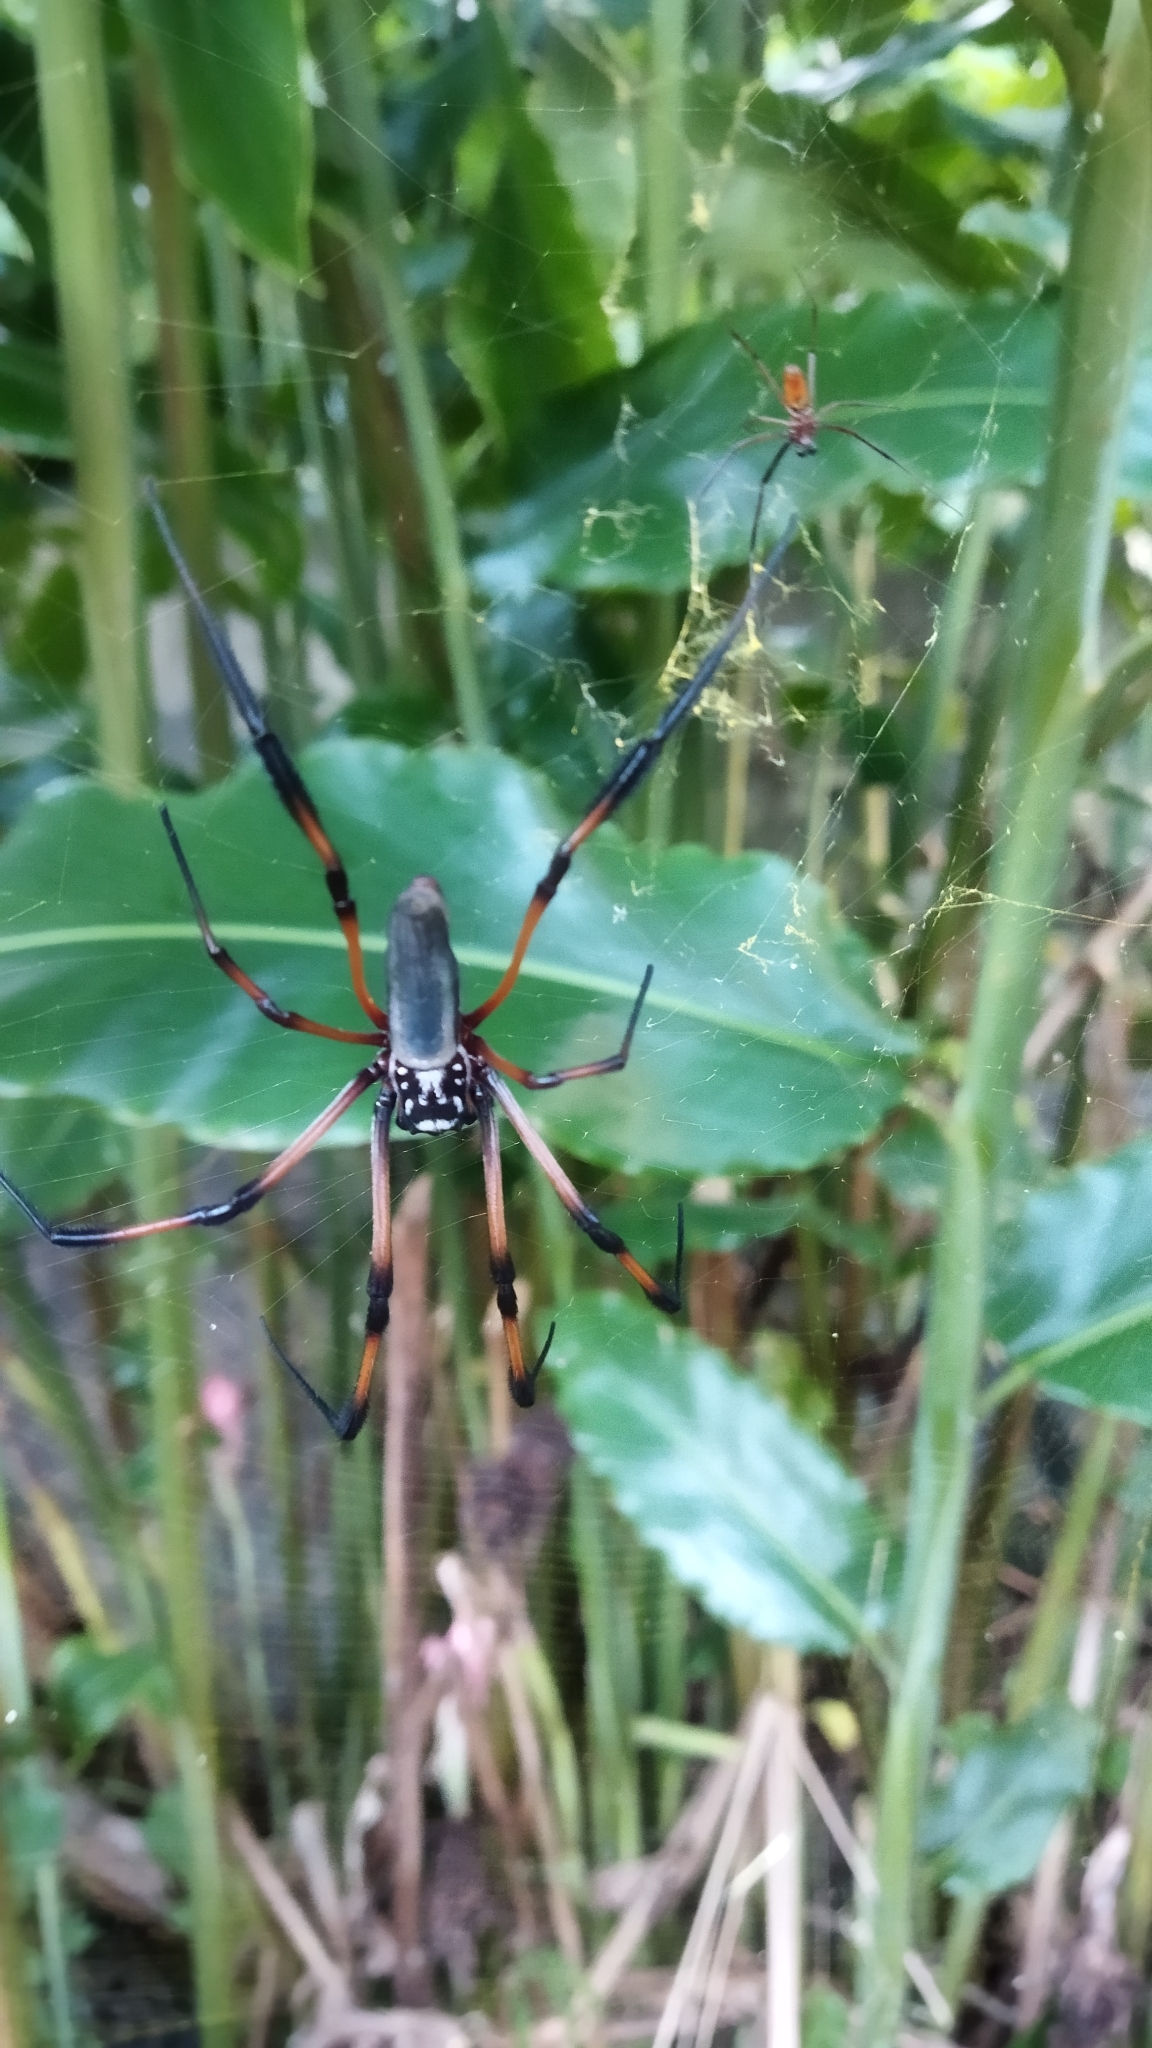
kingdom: Animalia
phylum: Arthropoda
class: Arachnida
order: Araneae
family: Araneidae
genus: Trichonephila
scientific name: Trichonephila inaurata
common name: Red-legged golden orb weaver
